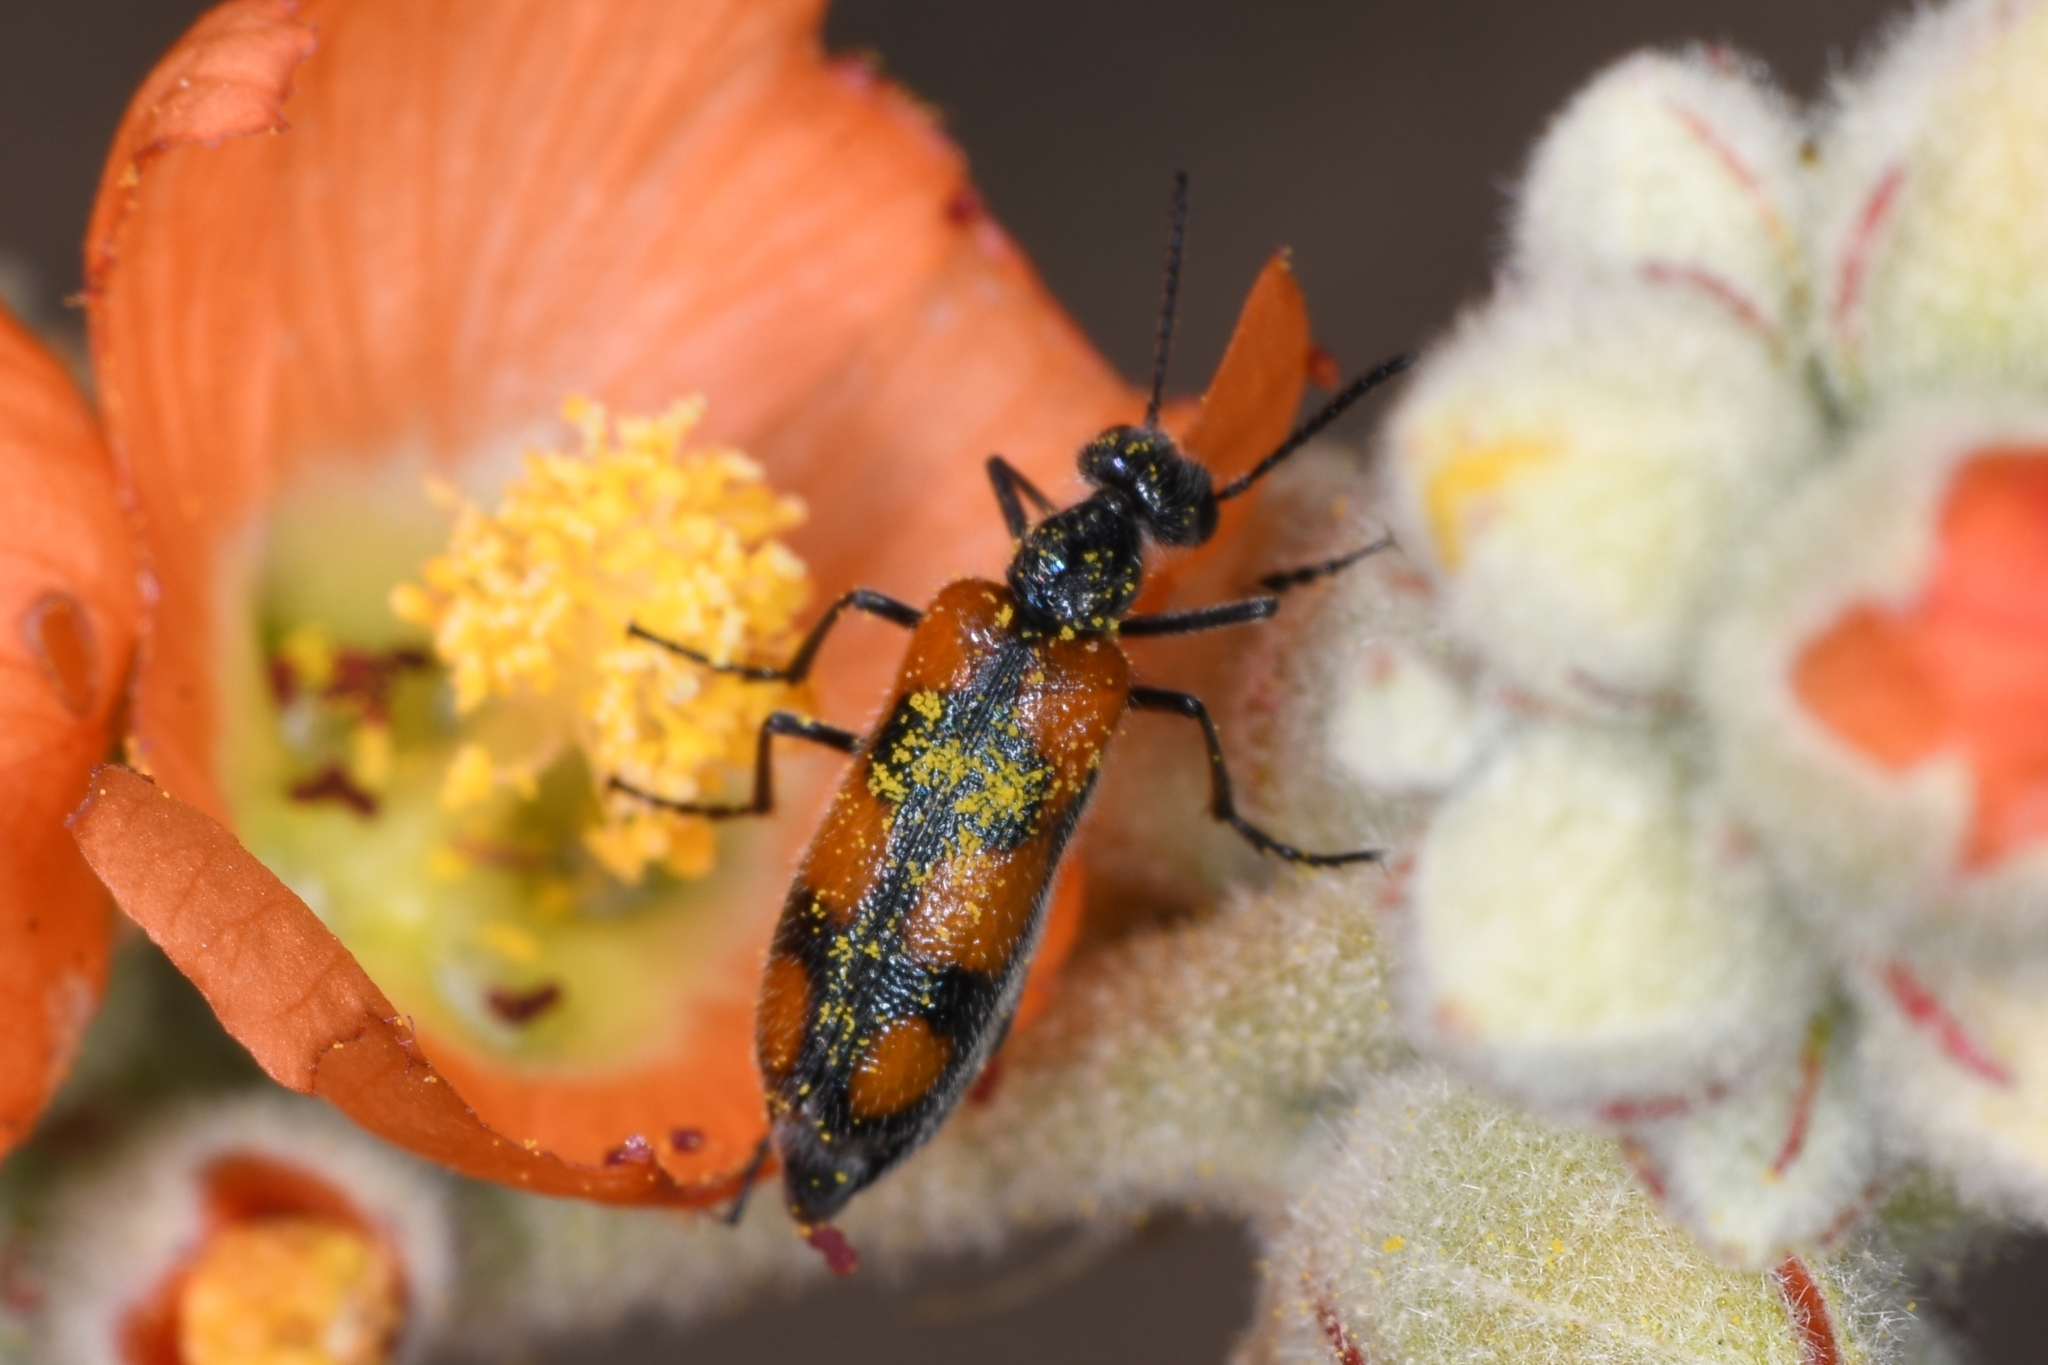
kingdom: Animalia
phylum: Arthropoda
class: Insecta
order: Coleoptera
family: Meloidae
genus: Eupompha
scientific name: Eupompha elegans
